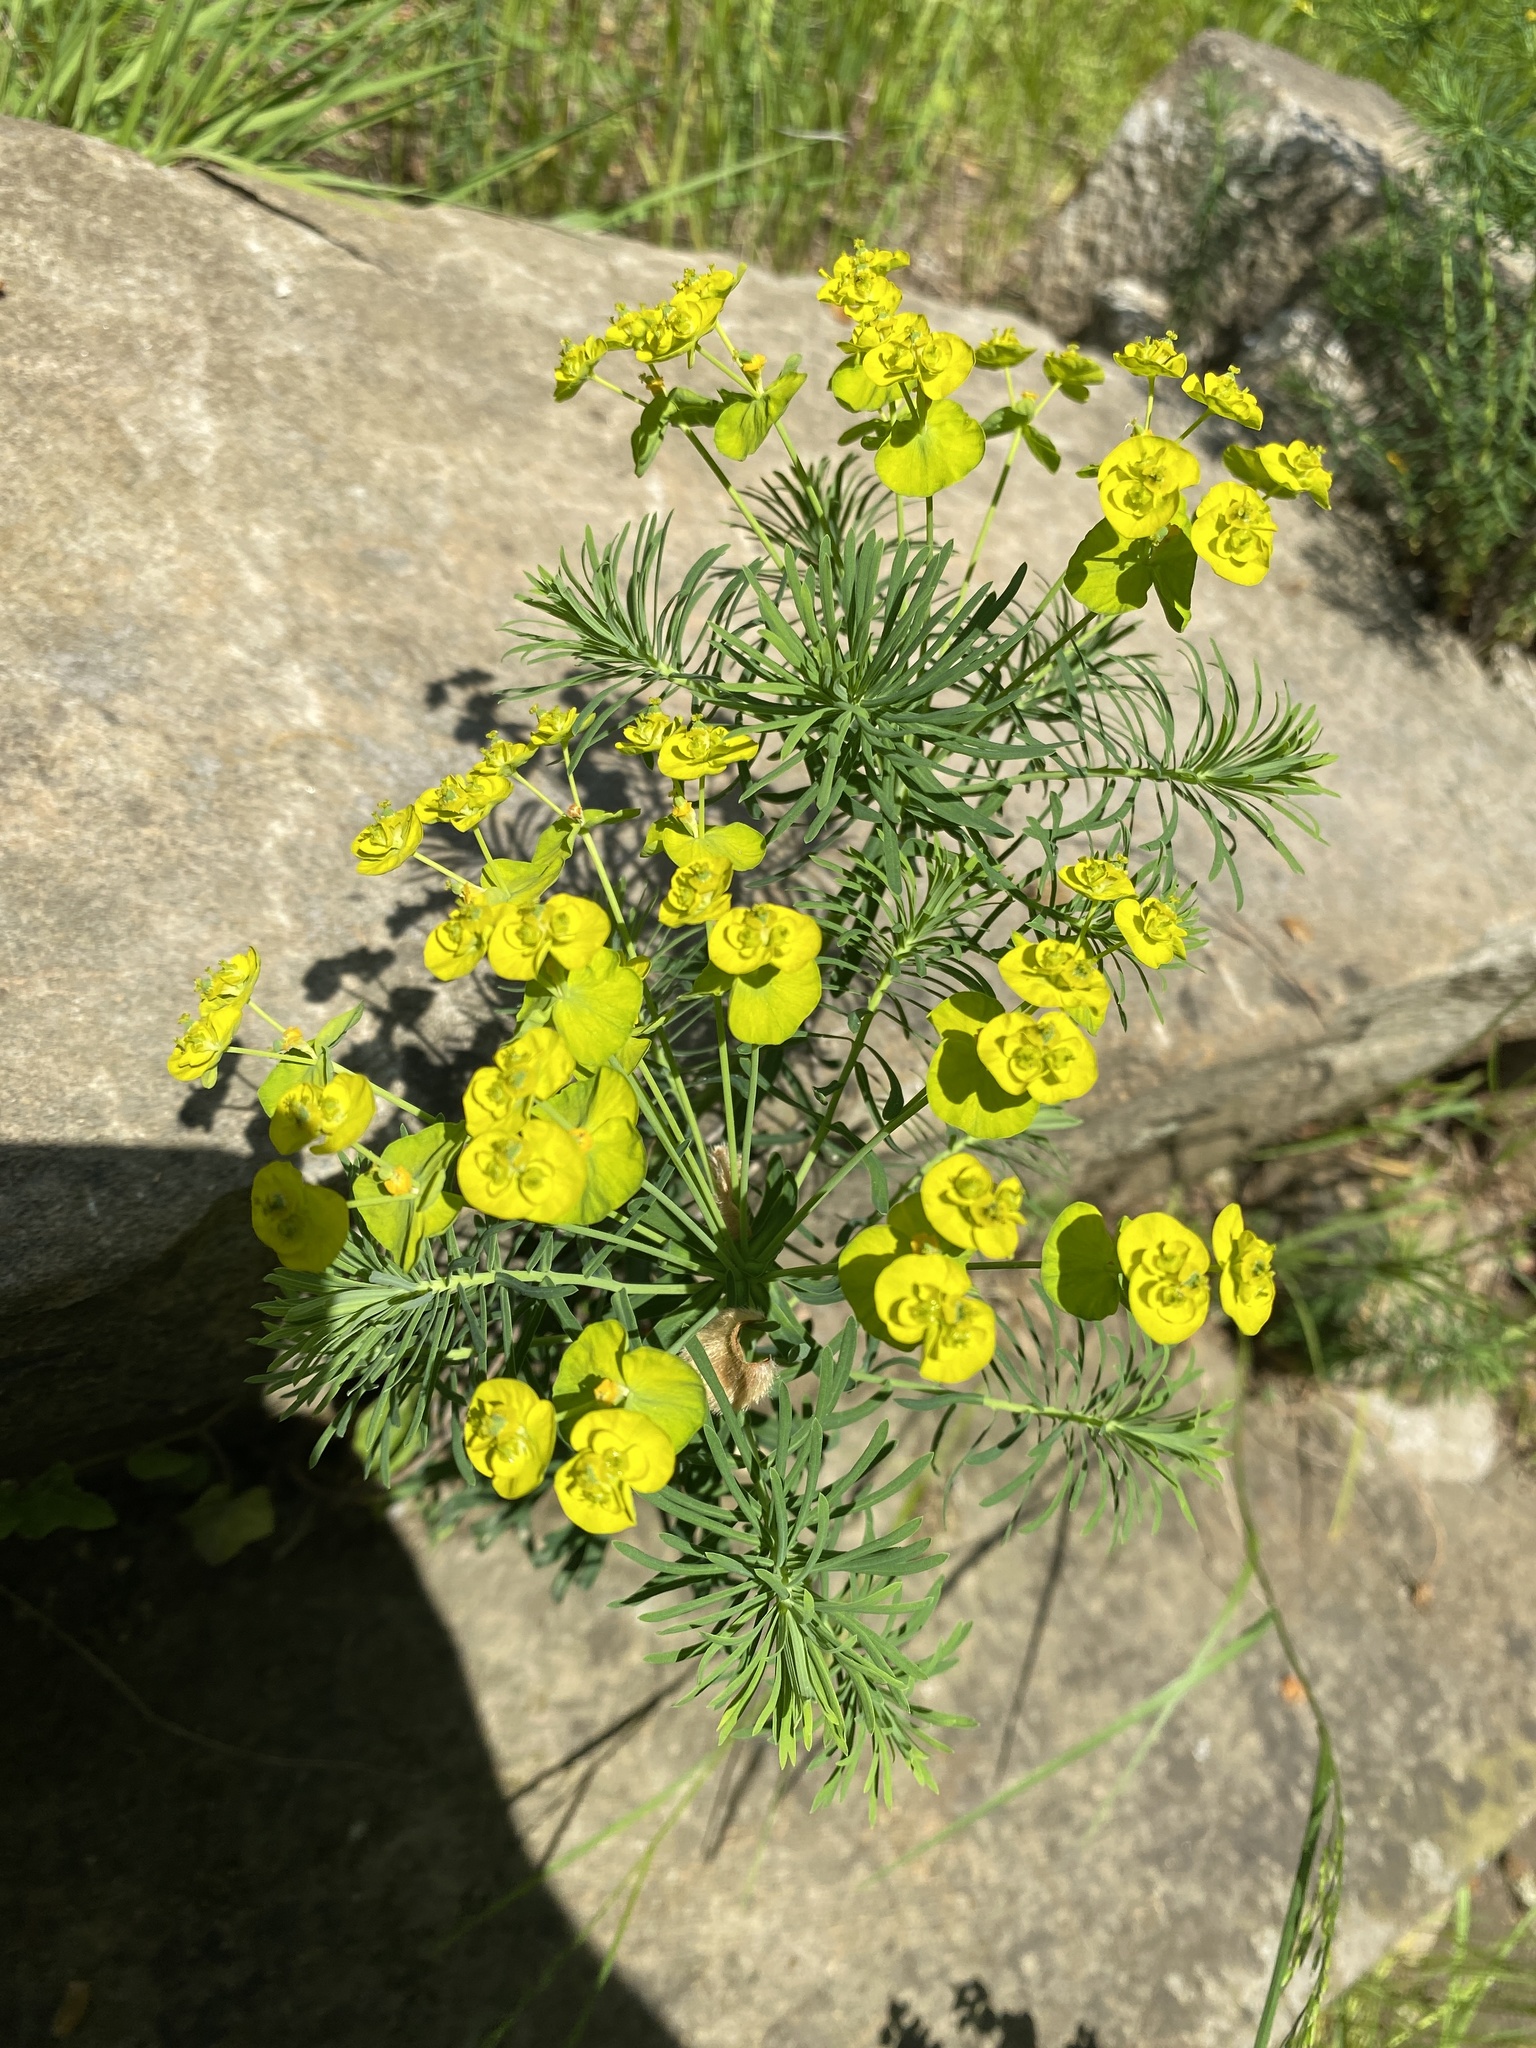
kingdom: Plantae
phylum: Tracheophyta
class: Magnoliopsida
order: Malpighiales
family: Euphorbiaceae
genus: Euphorbia
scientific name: Euphorbia cyparissias
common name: Cypress spurge
